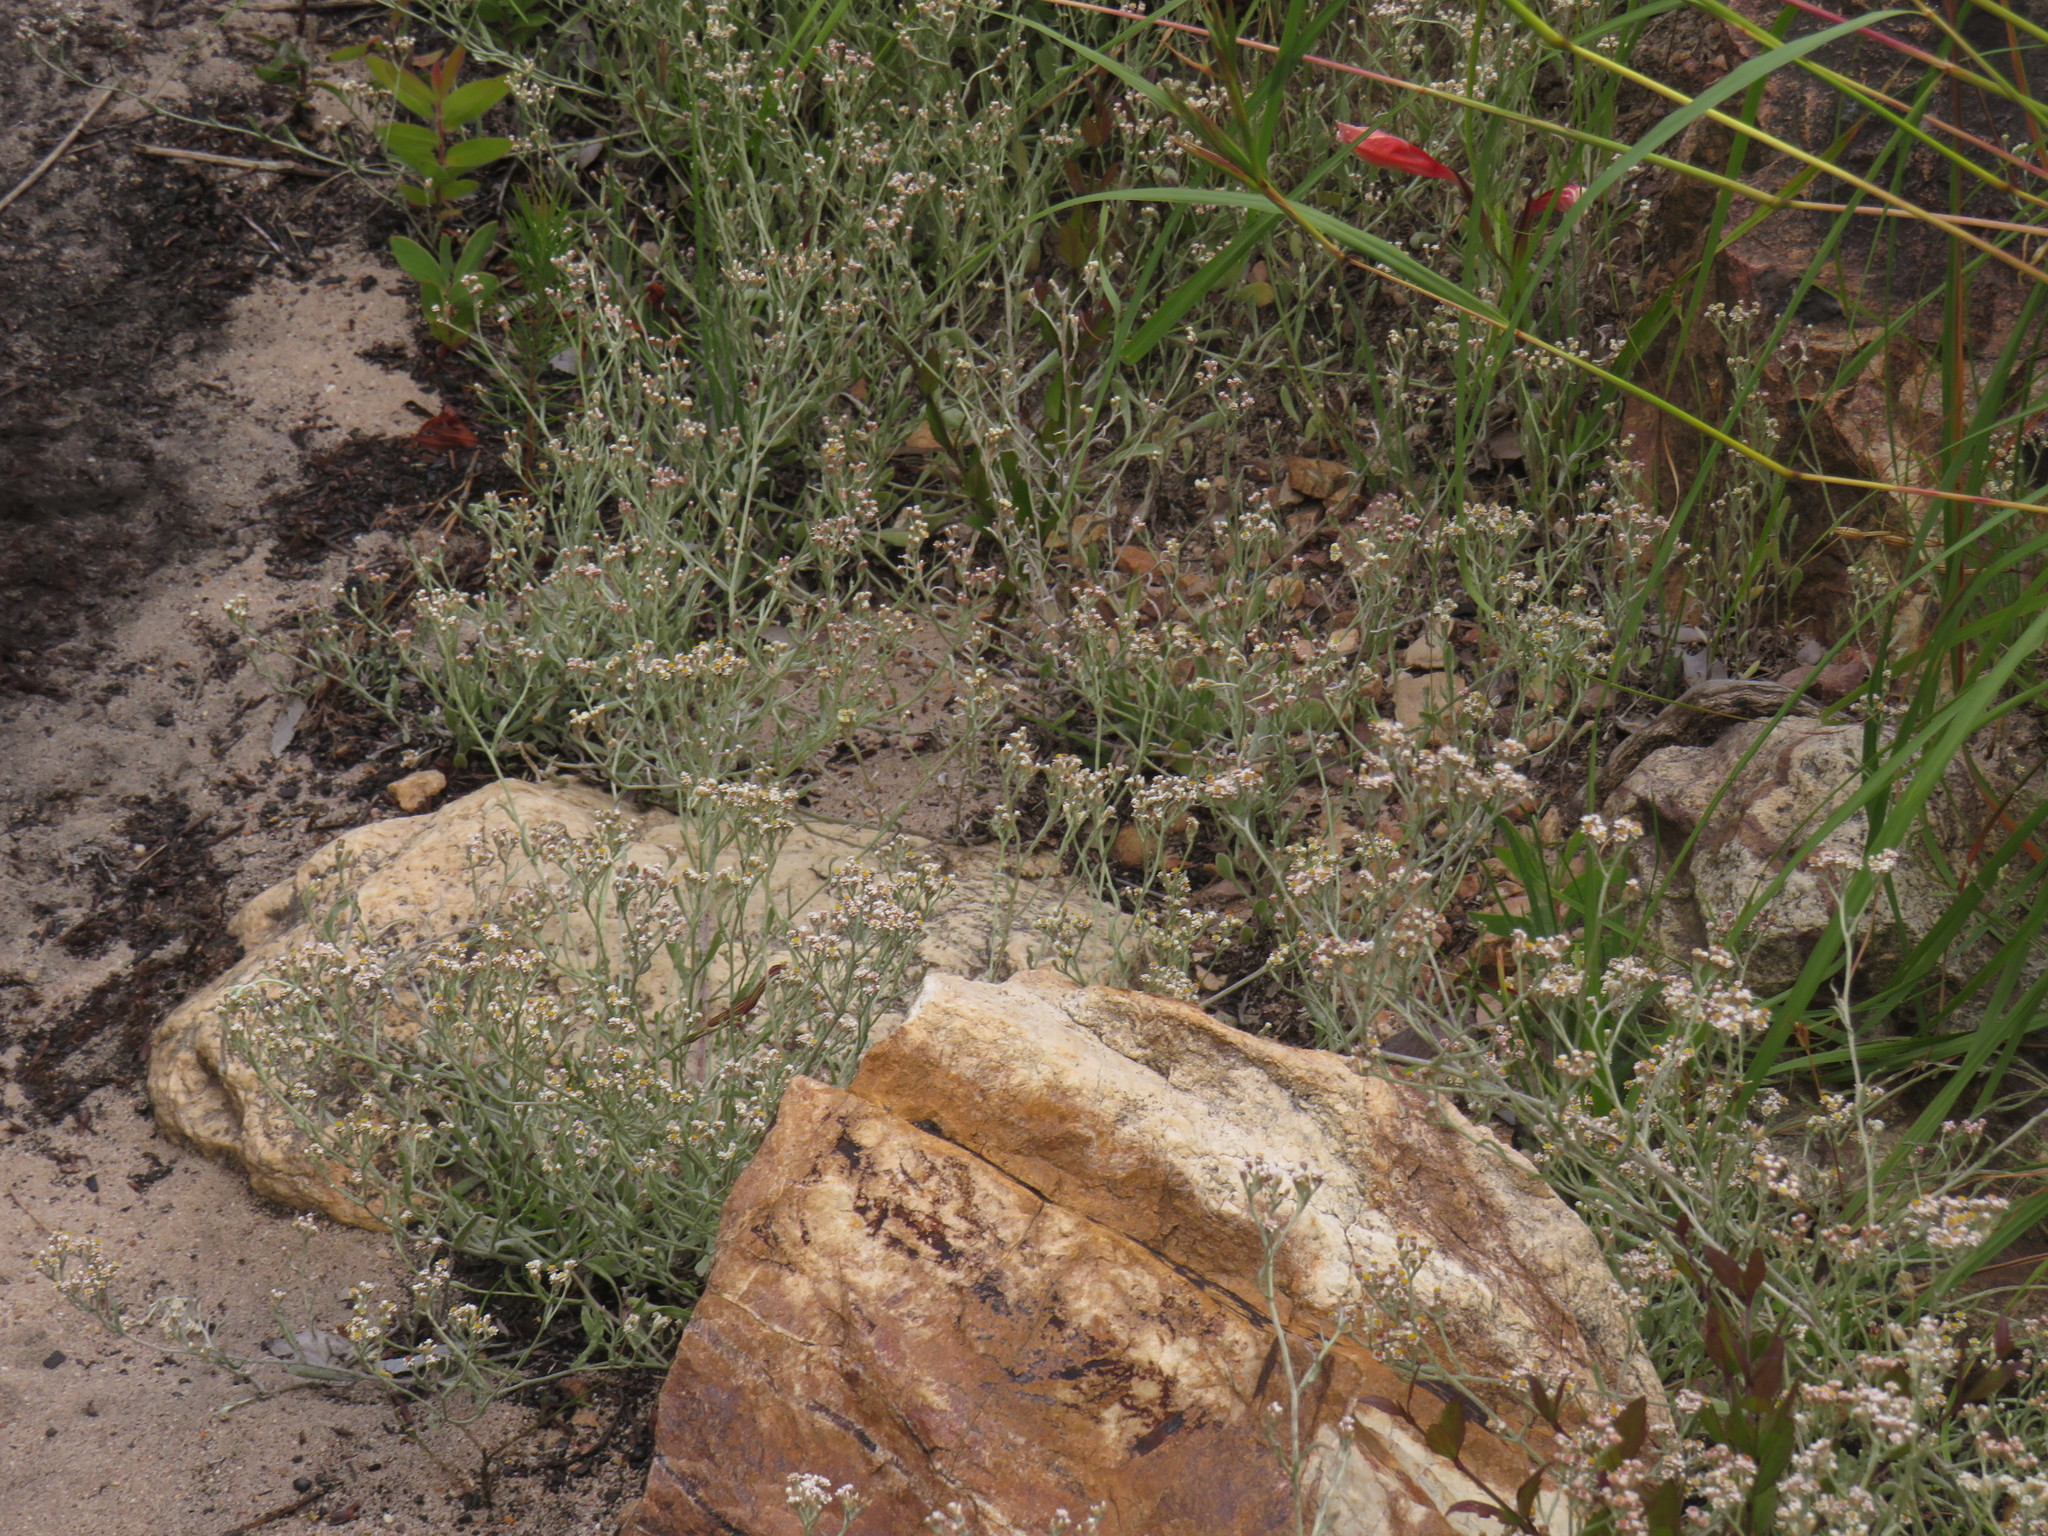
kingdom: Plantae
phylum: Tracheophyta
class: Magnoliopsida
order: Asterales
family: Asteraceae
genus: Helichrysum
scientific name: Helichrysum indicum
